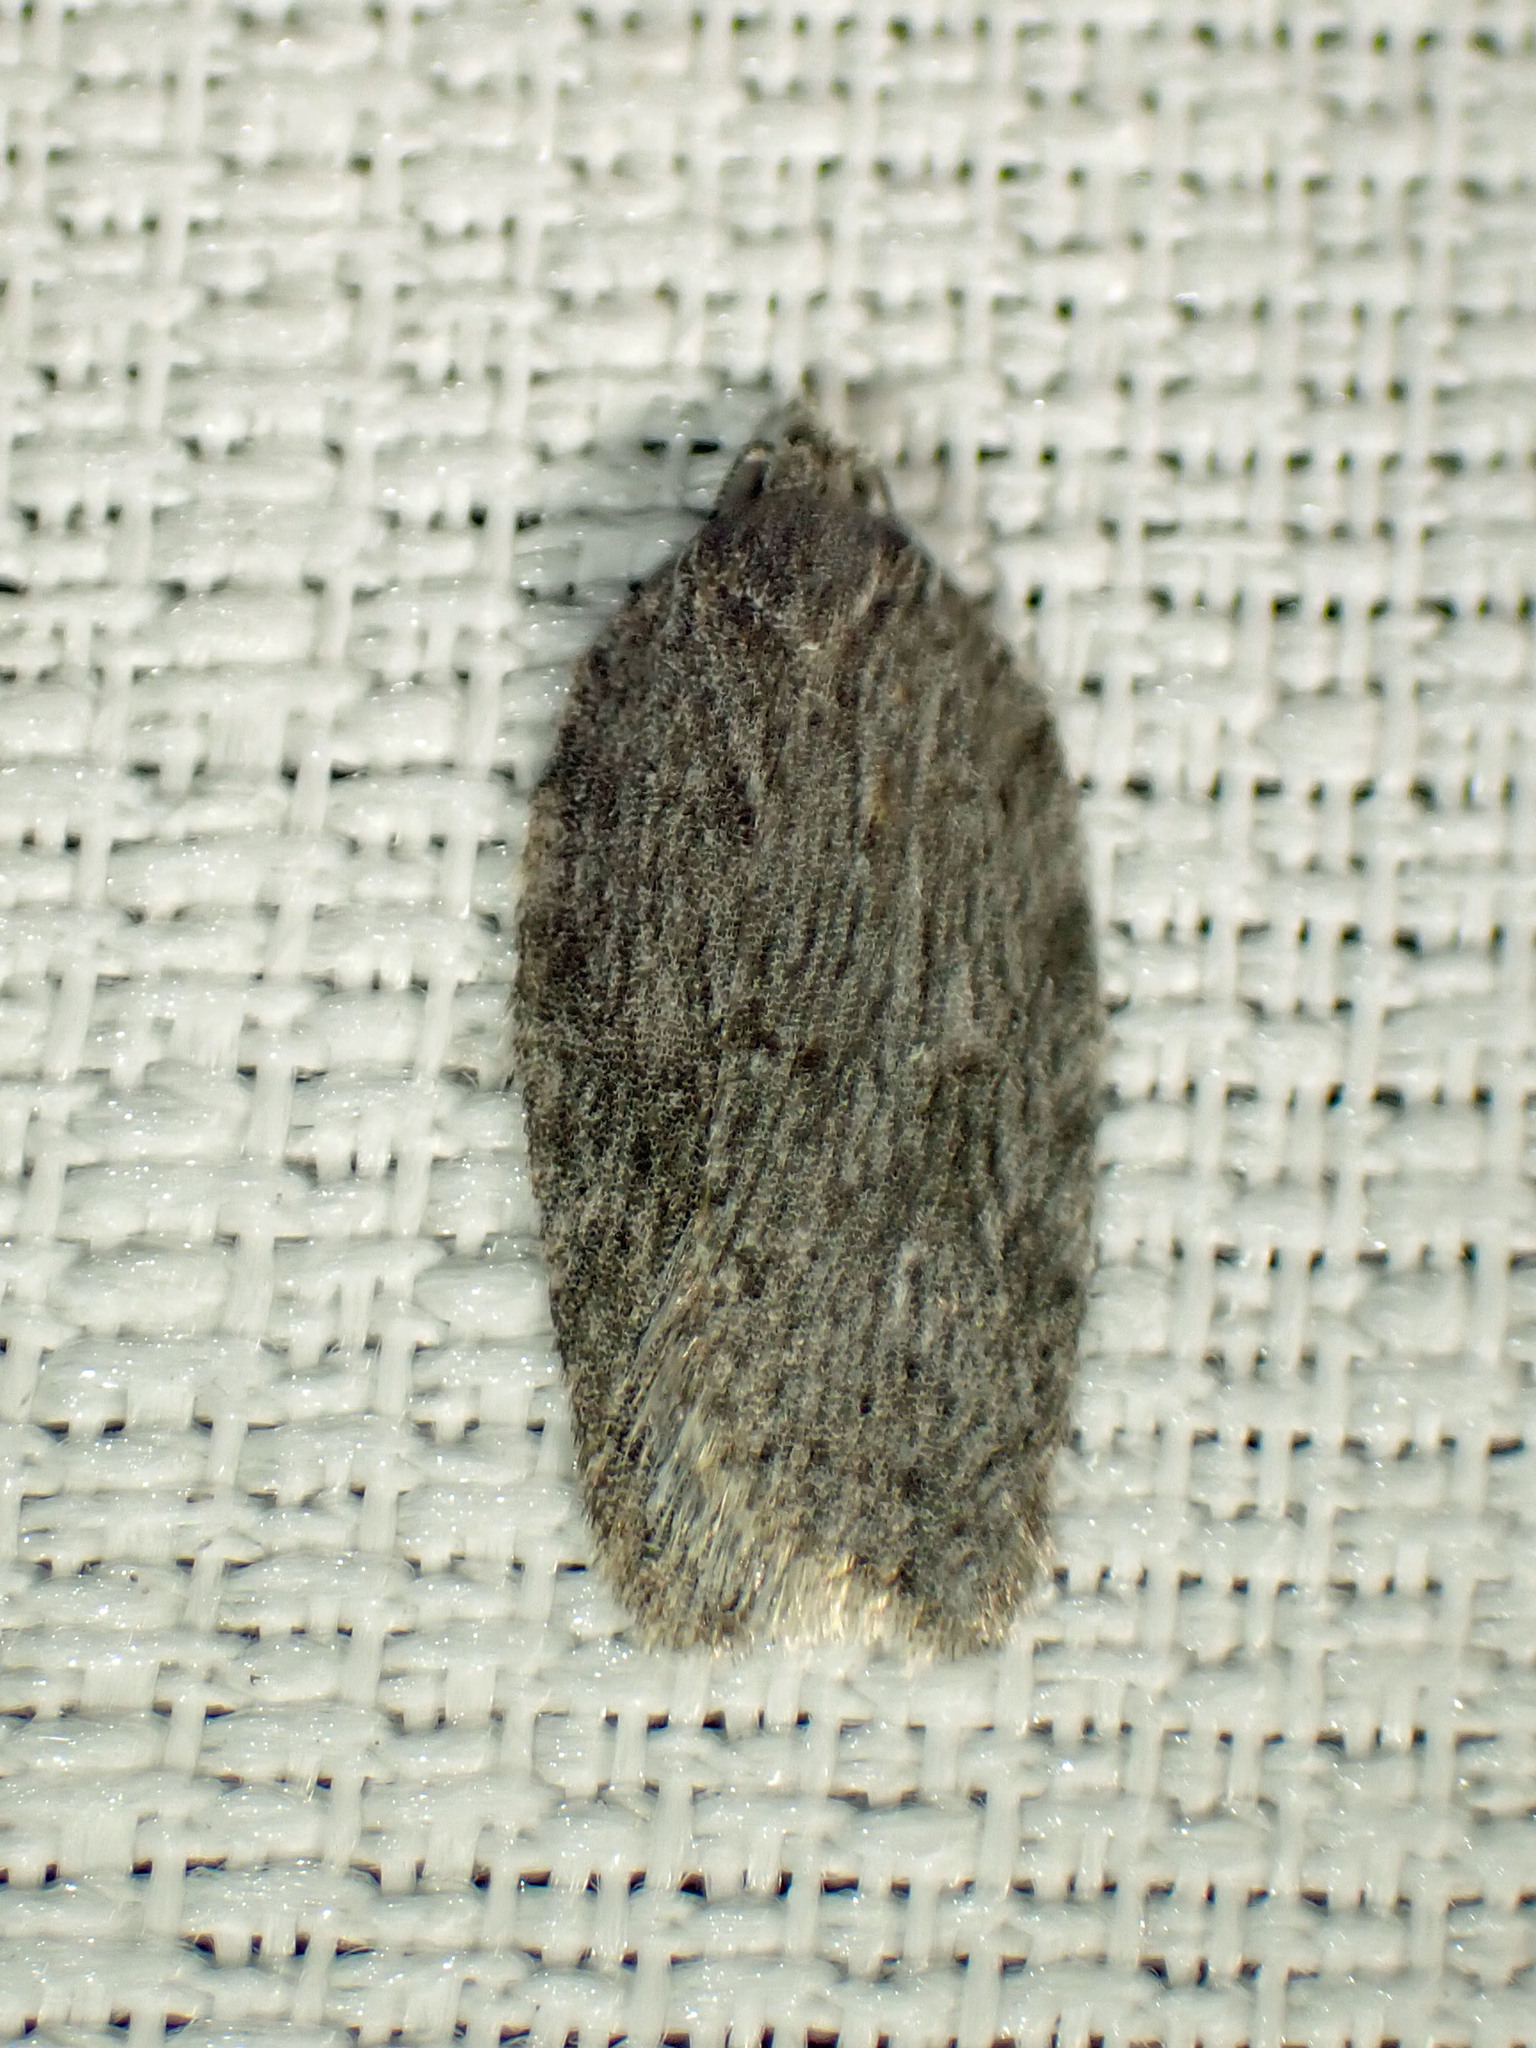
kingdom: Animalia
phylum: Arthropoda
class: Insecta
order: Lepidoptera
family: Tortricidae
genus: Acleris
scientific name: Acleris maximana
